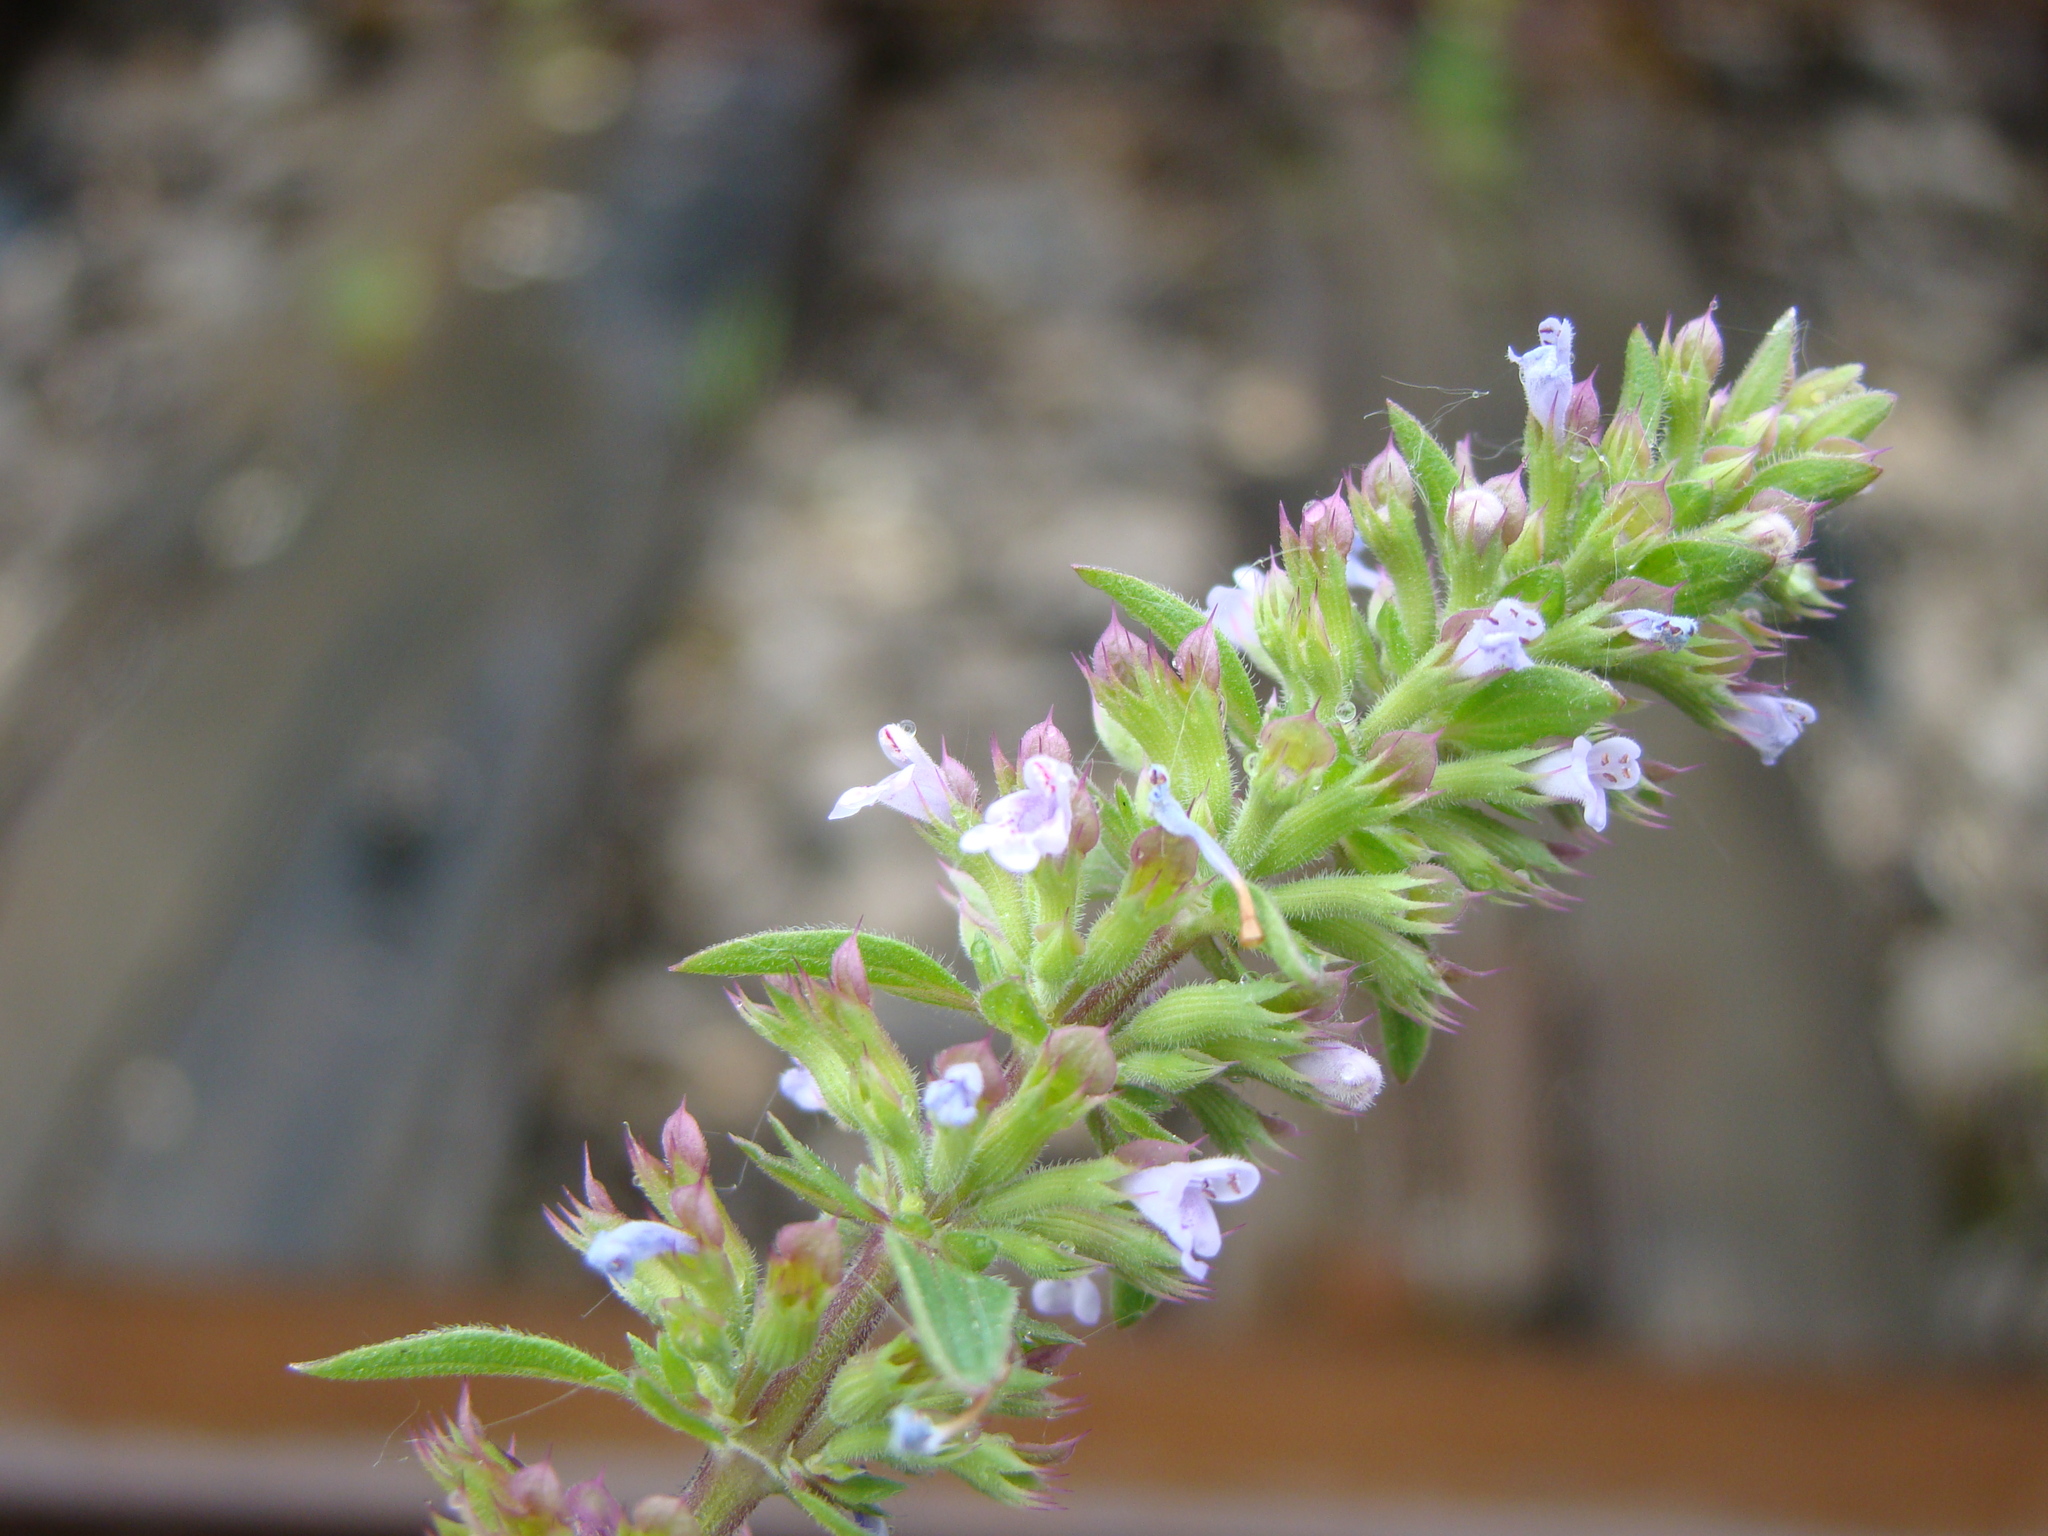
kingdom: Plantae
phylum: Tracheophyta
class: Magnoliopsida
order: Lamiales
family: Lamiaceae
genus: Dracocephalum
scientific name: Dracocephalum thymiflorum
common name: Thymeleaf dragonhead
